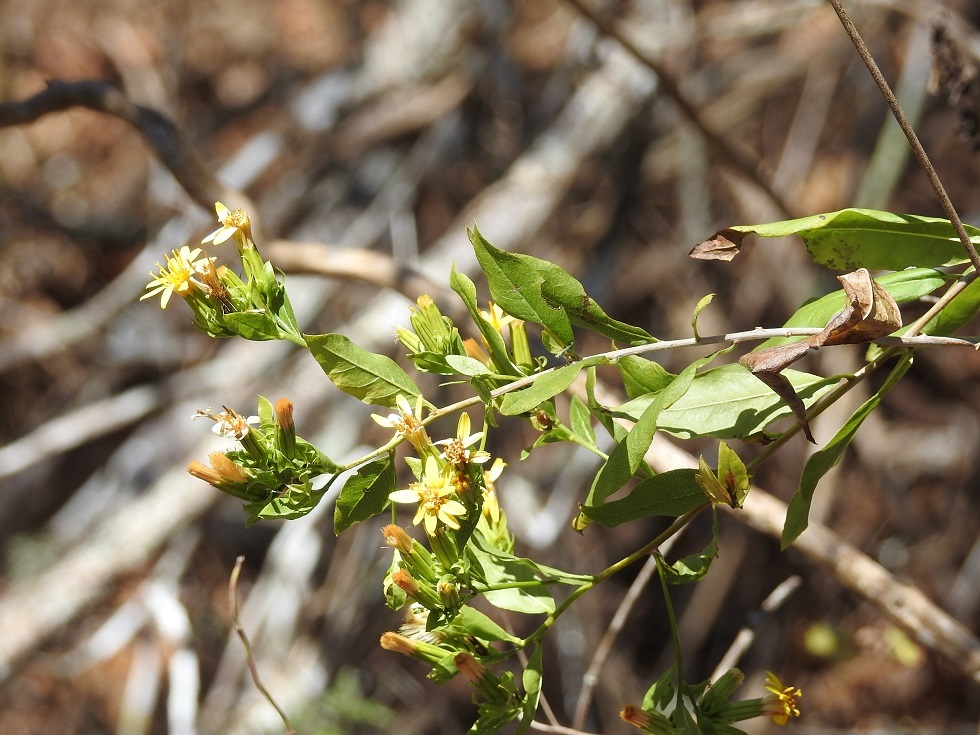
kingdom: Plantae
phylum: Tracheophyta
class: Magnoliopsida
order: Asterales
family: Asteraceae
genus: Trixis
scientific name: Trixis chiapensis
